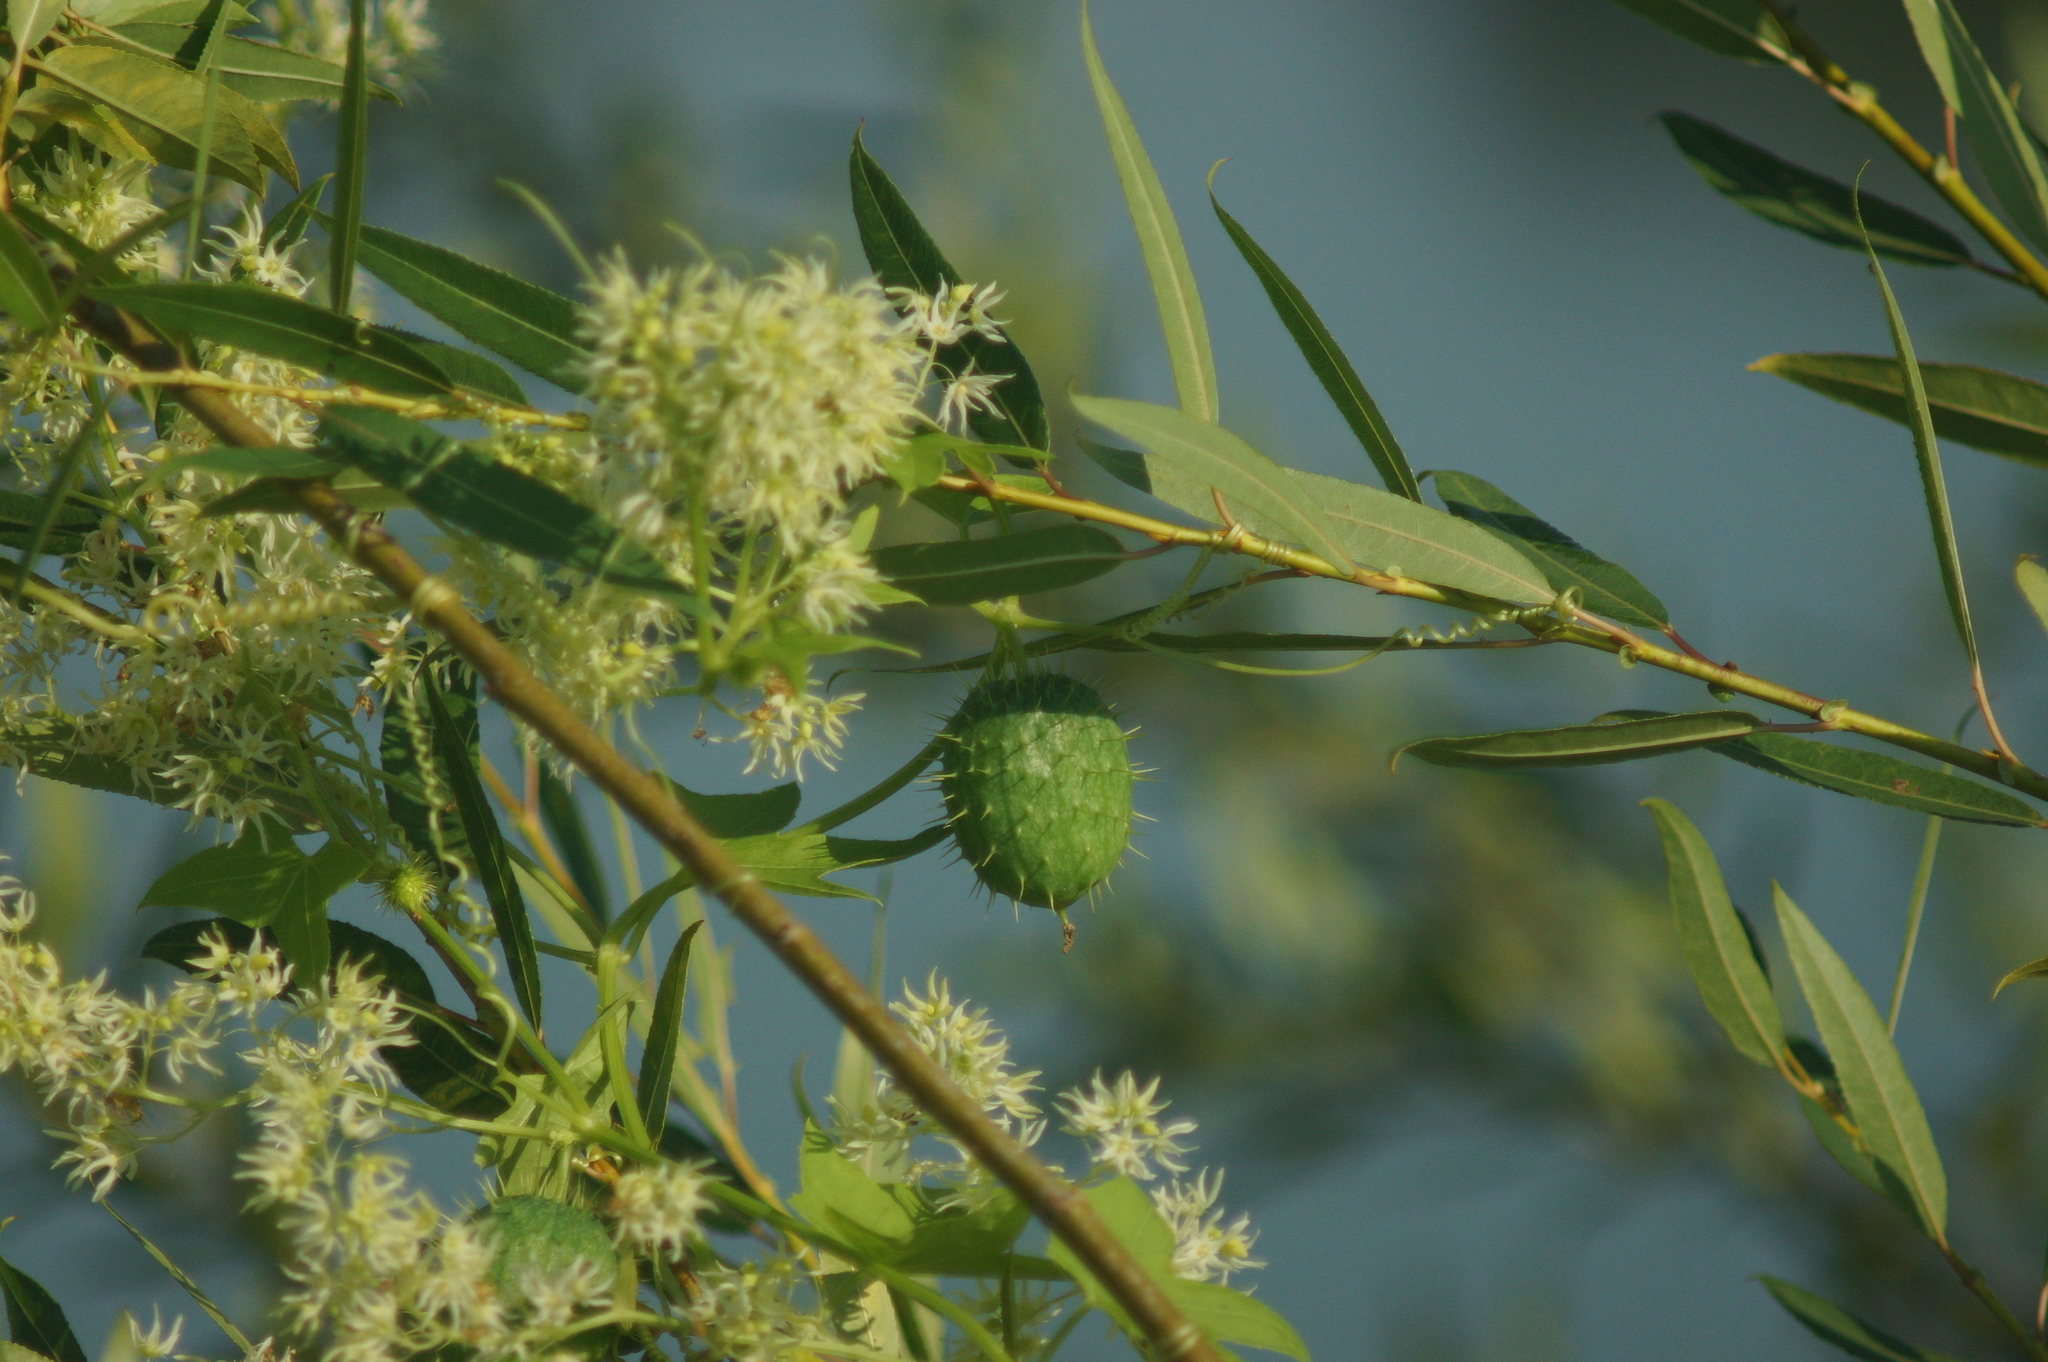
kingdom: Plantae
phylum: Tracheophyta
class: Magnoliopsida
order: Cucurbitales
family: Cucurbitaceae
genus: Echinocystis
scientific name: Echinocystis lobata
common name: Wild cucumber
